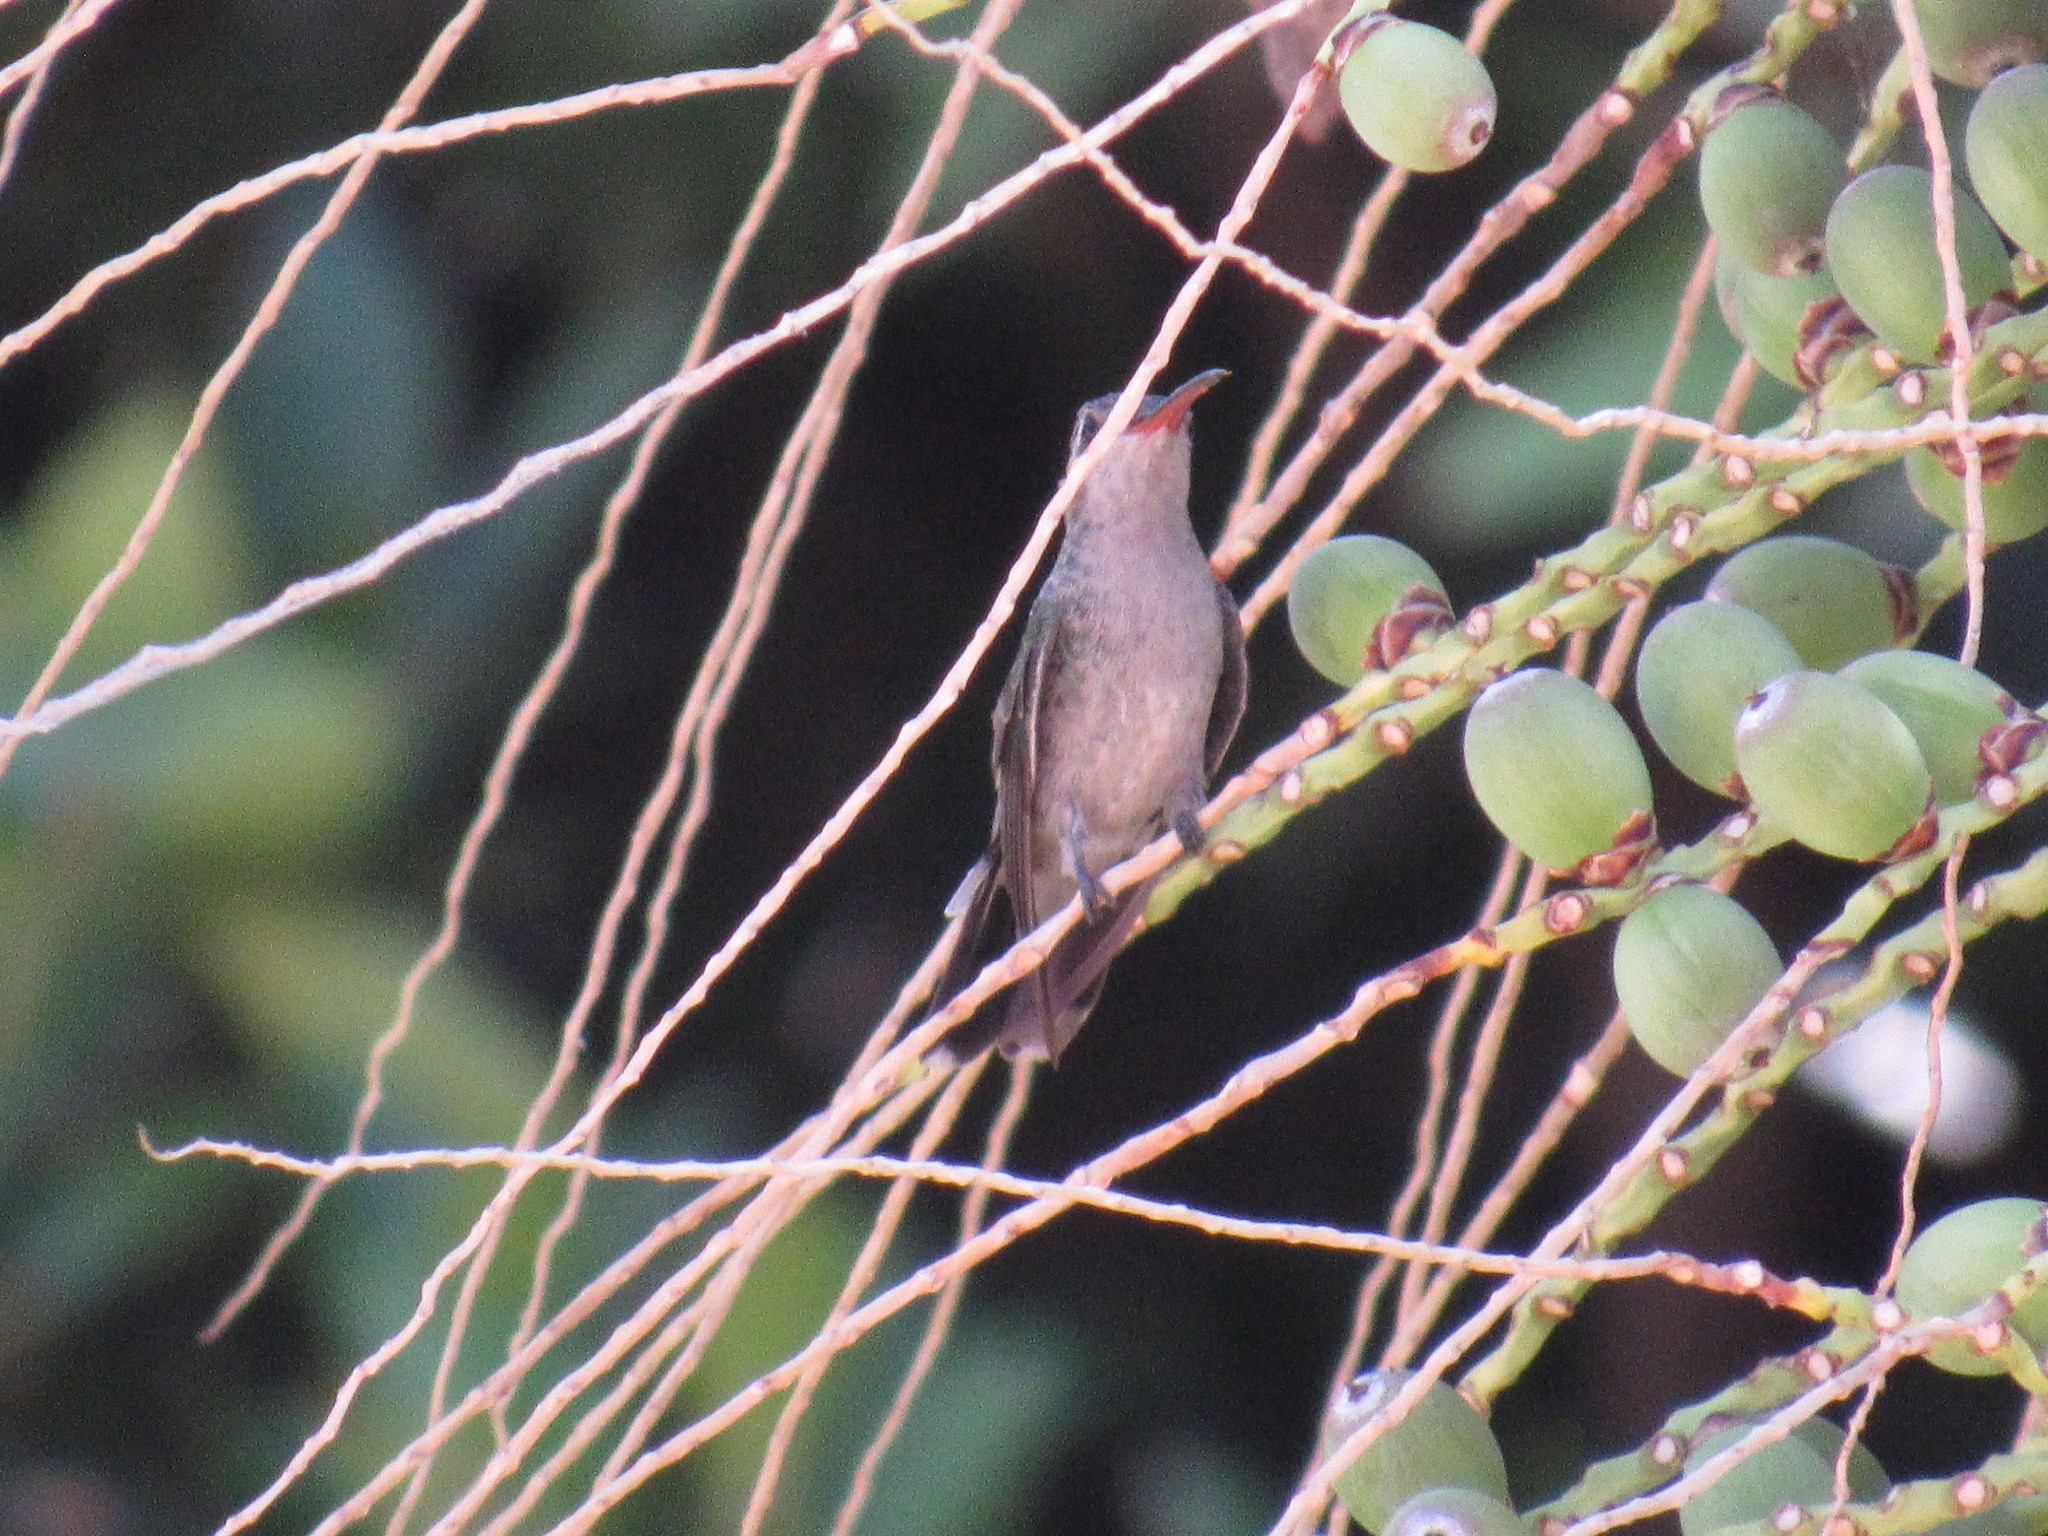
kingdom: Animalia
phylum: Chordata
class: Aves
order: Apodiformes
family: Trochilidae
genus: Cynanthus
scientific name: Cynanthus latirostris
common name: Broad-billed hummingbird
